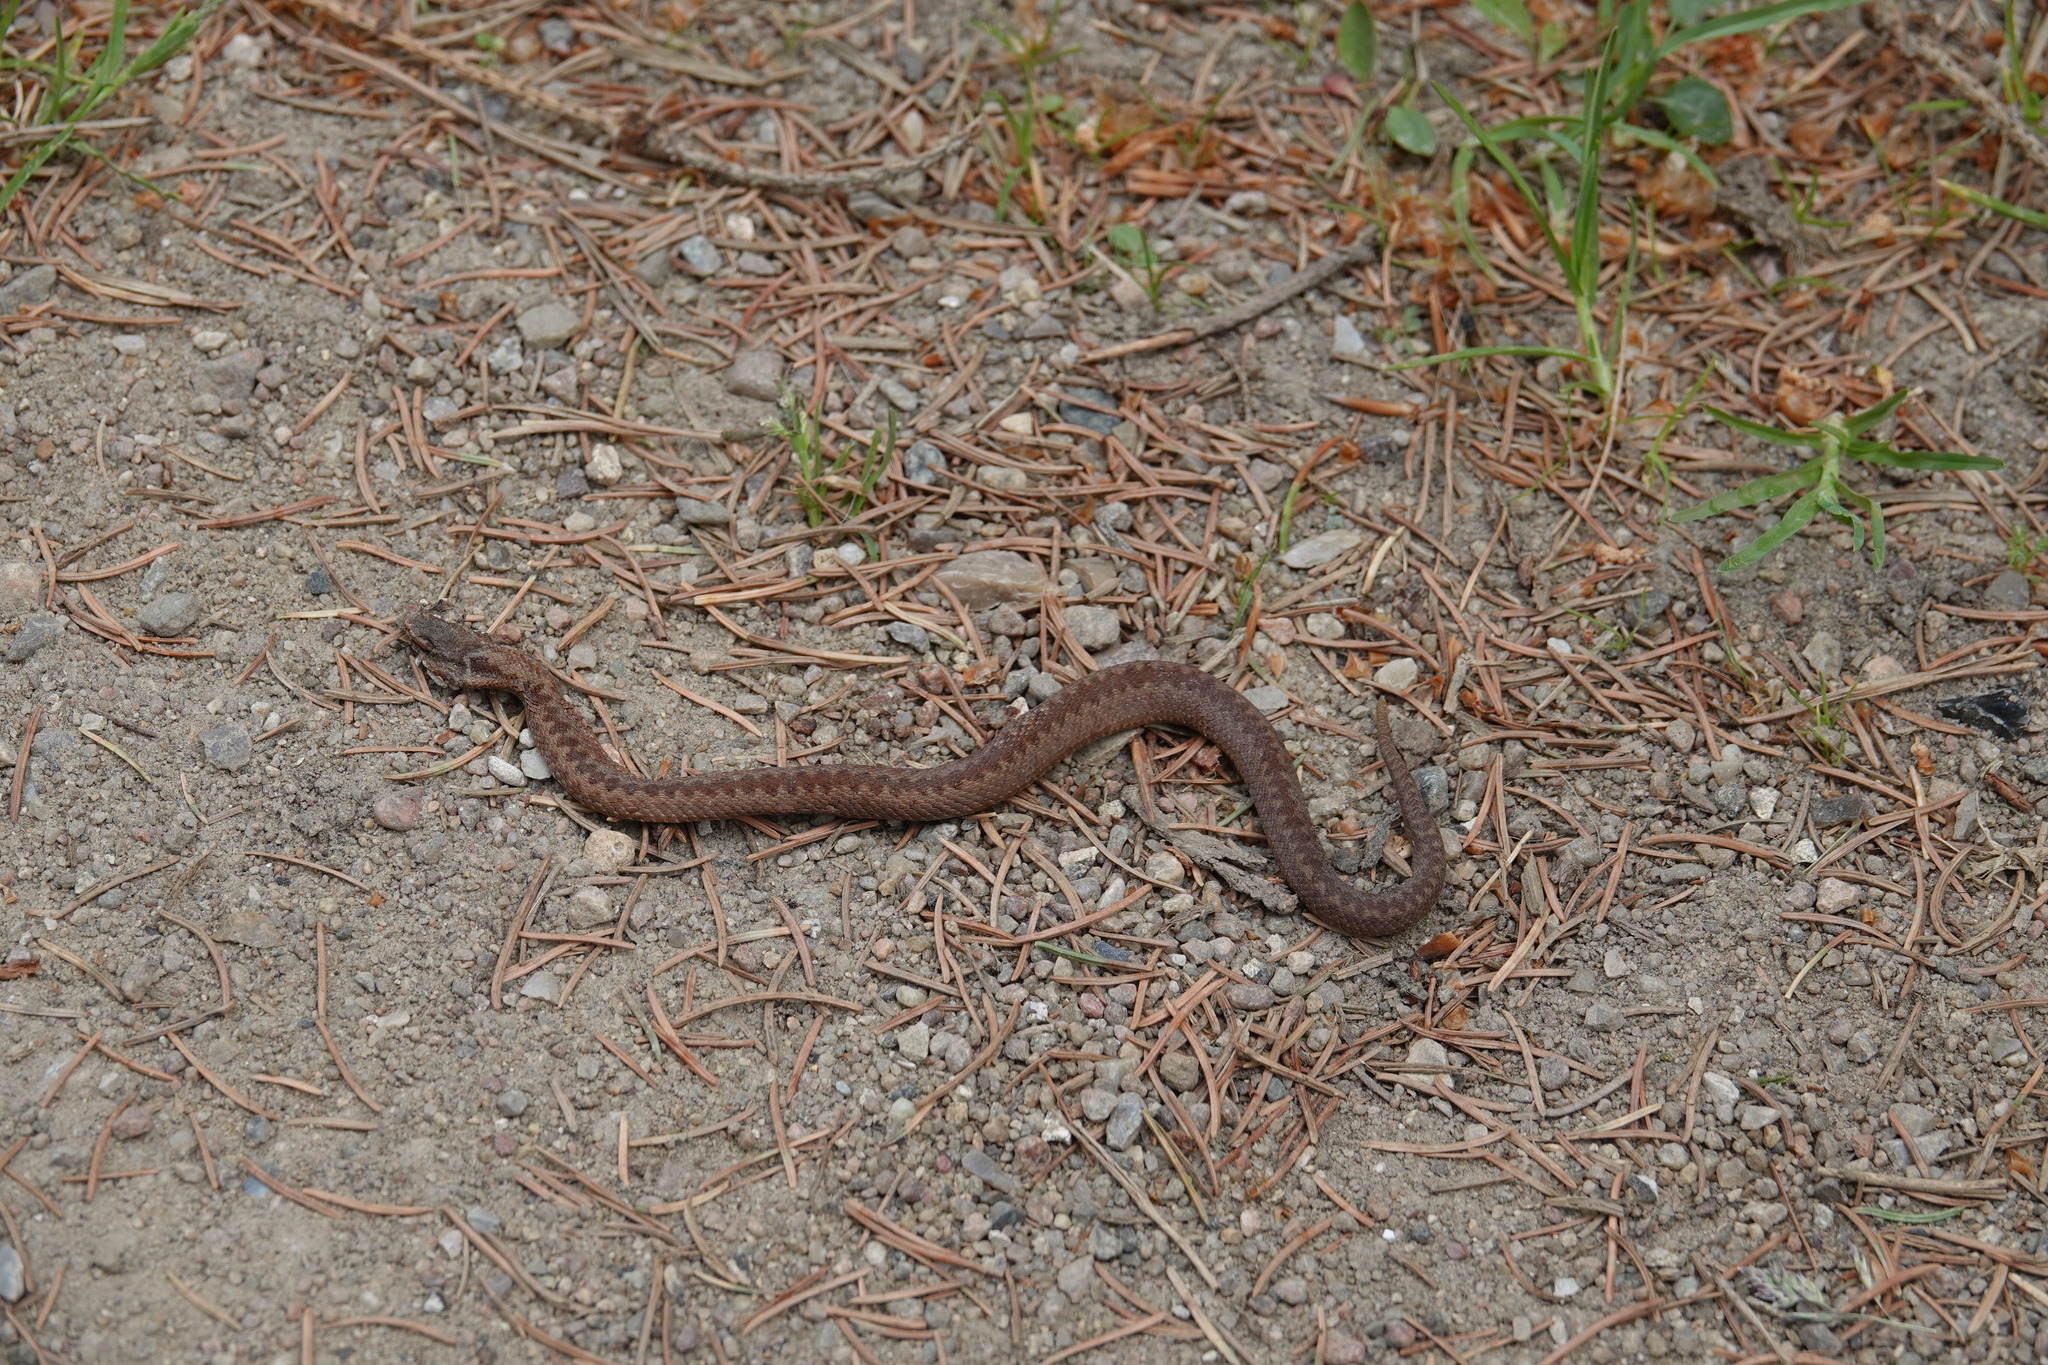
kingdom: Animalia
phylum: Chordata
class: Squamata
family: Viperidae
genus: Vipera
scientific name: Vipera berus
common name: Adder
